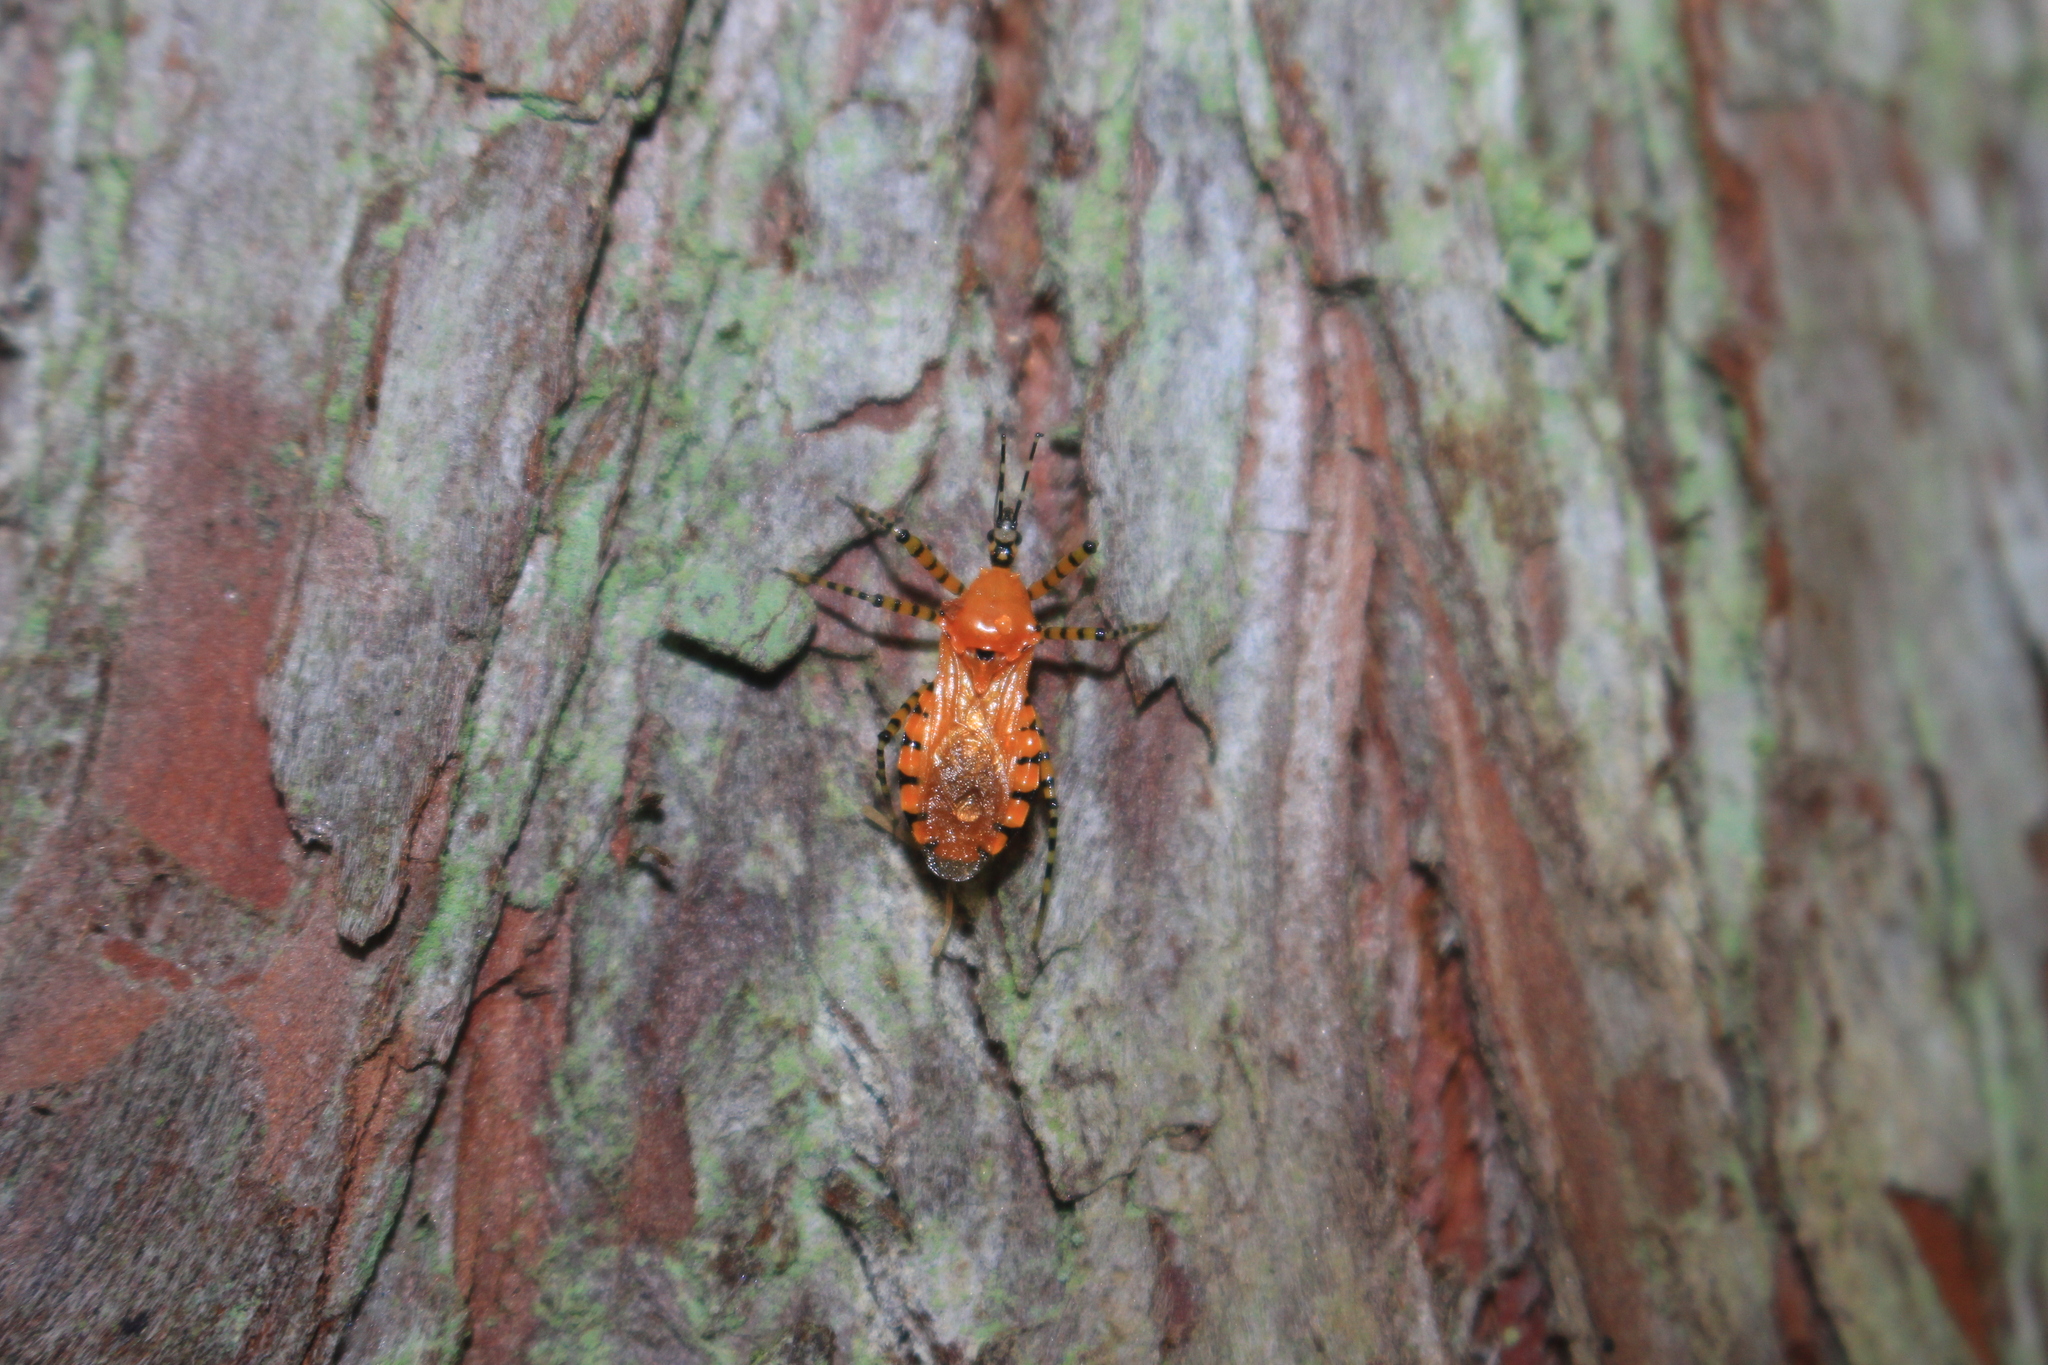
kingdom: Animalia
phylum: Arthropoda
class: Insecta
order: Hemiptera
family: Reduviidae
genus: Pselliopus
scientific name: Pselliopus barberi
